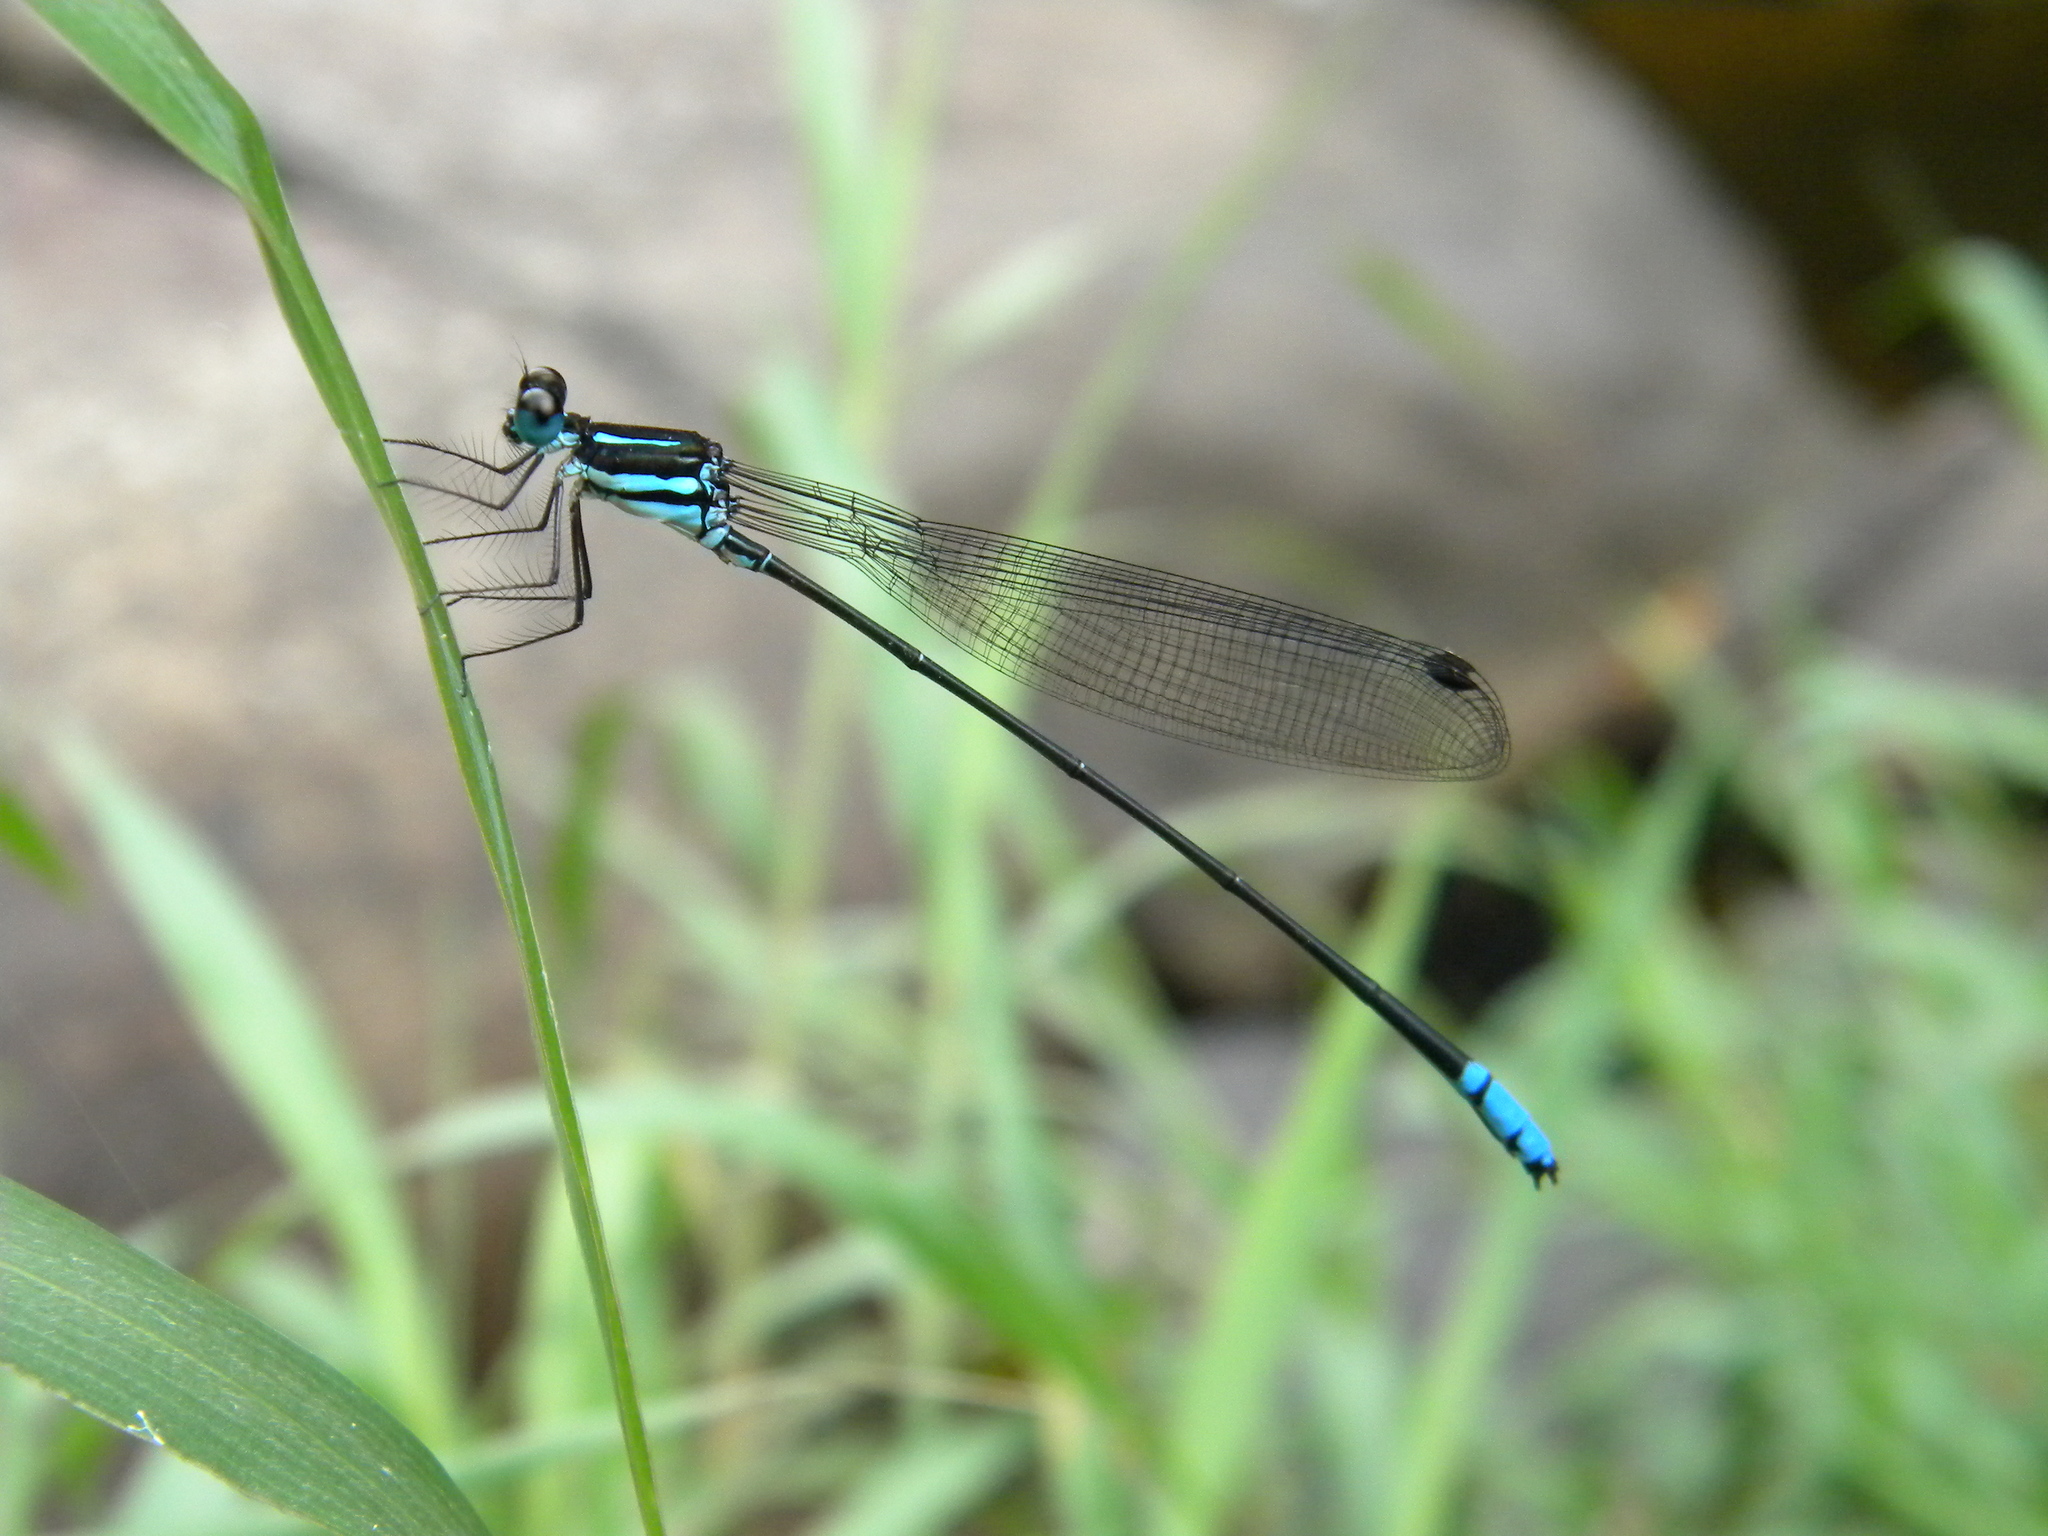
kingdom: Animalia
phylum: Arthropoda
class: Insecta
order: Odonata
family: Platycnemididae
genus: Phylloneura
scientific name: Phylloneura westermanni
